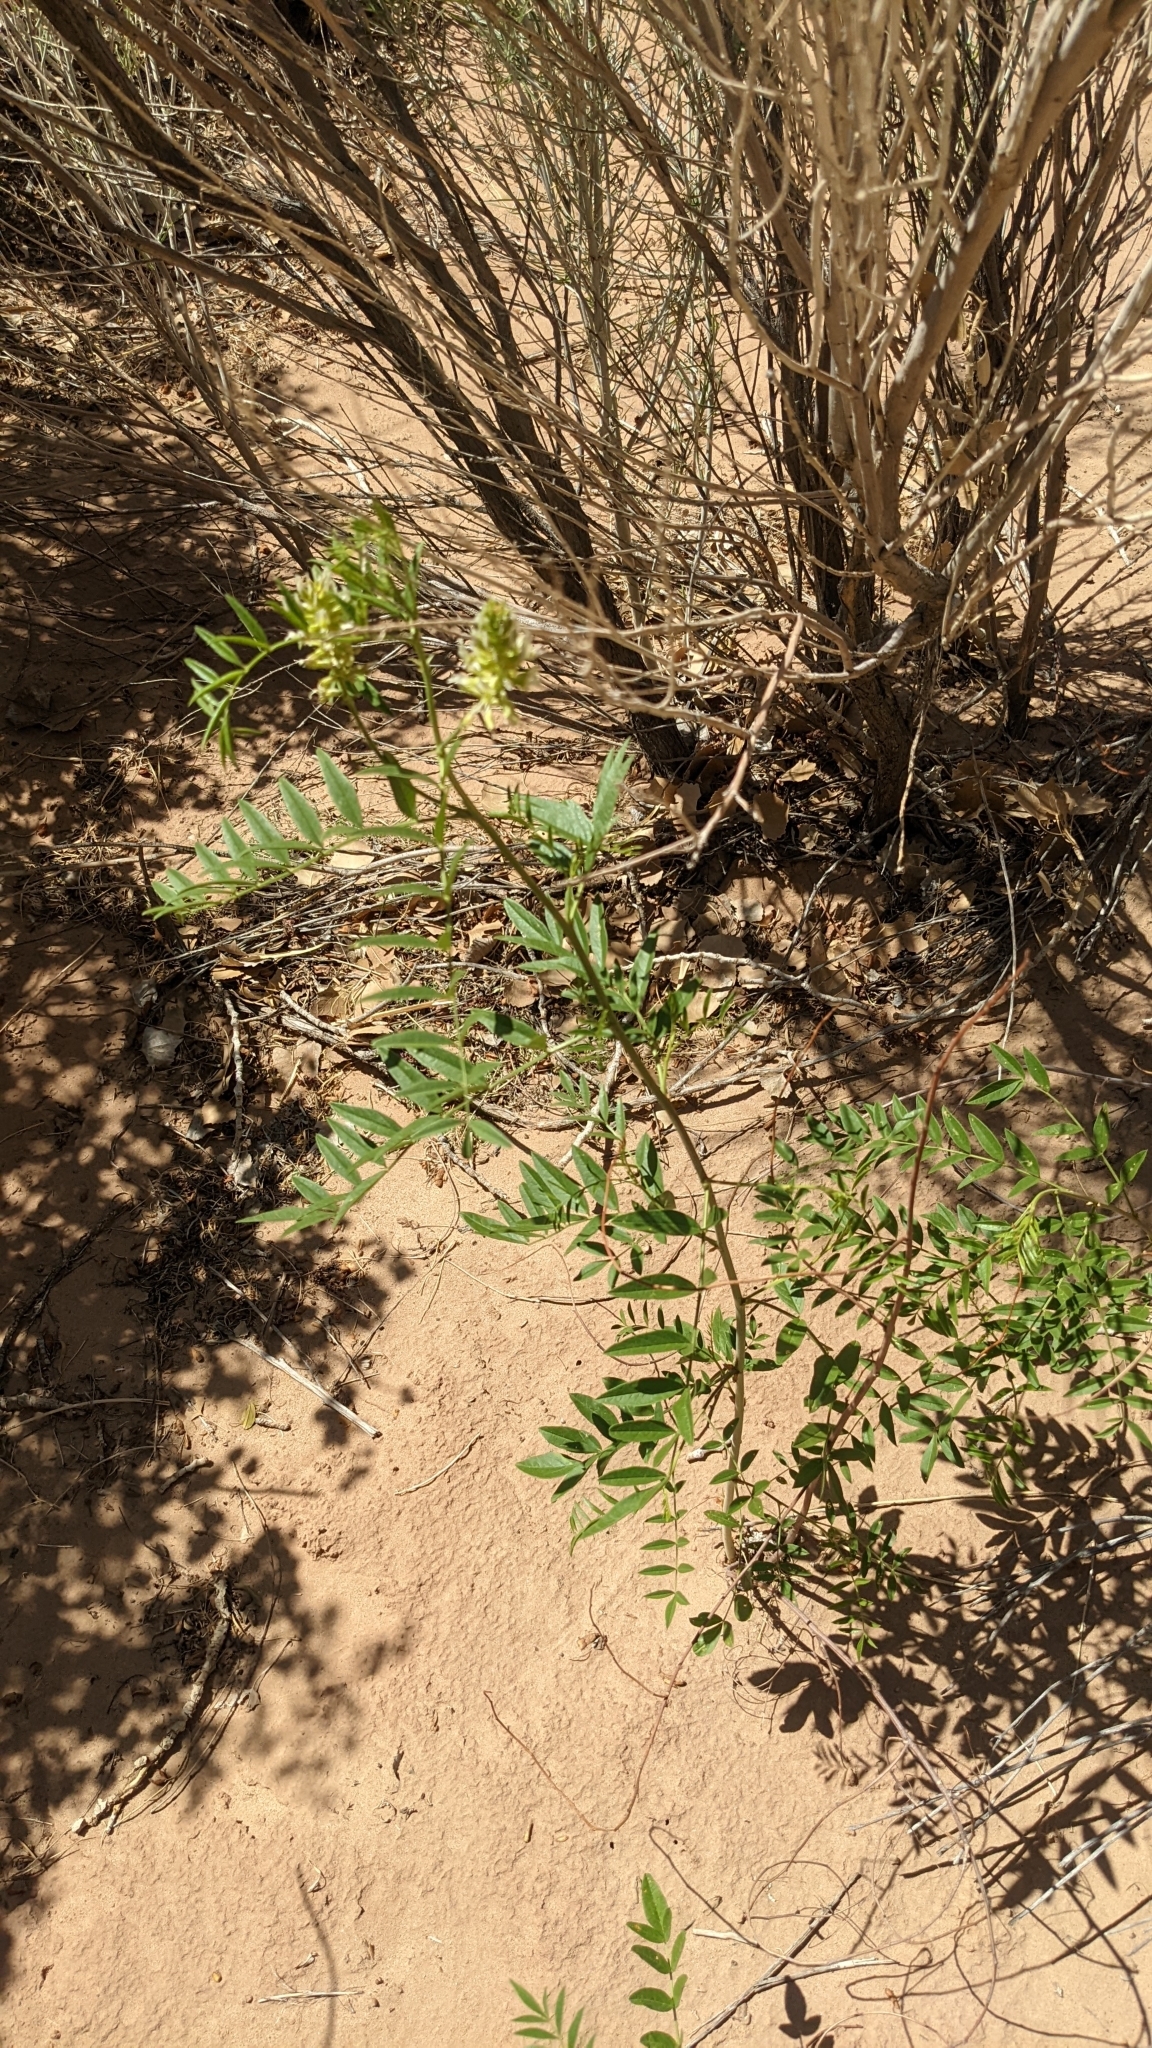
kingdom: Plantae
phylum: Tracheophyta
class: Magnoliopsida
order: Fabales
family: Fabaceae
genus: Glycyrrhiza
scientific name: Glycyrrhiza lepidota
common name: American liquorice
